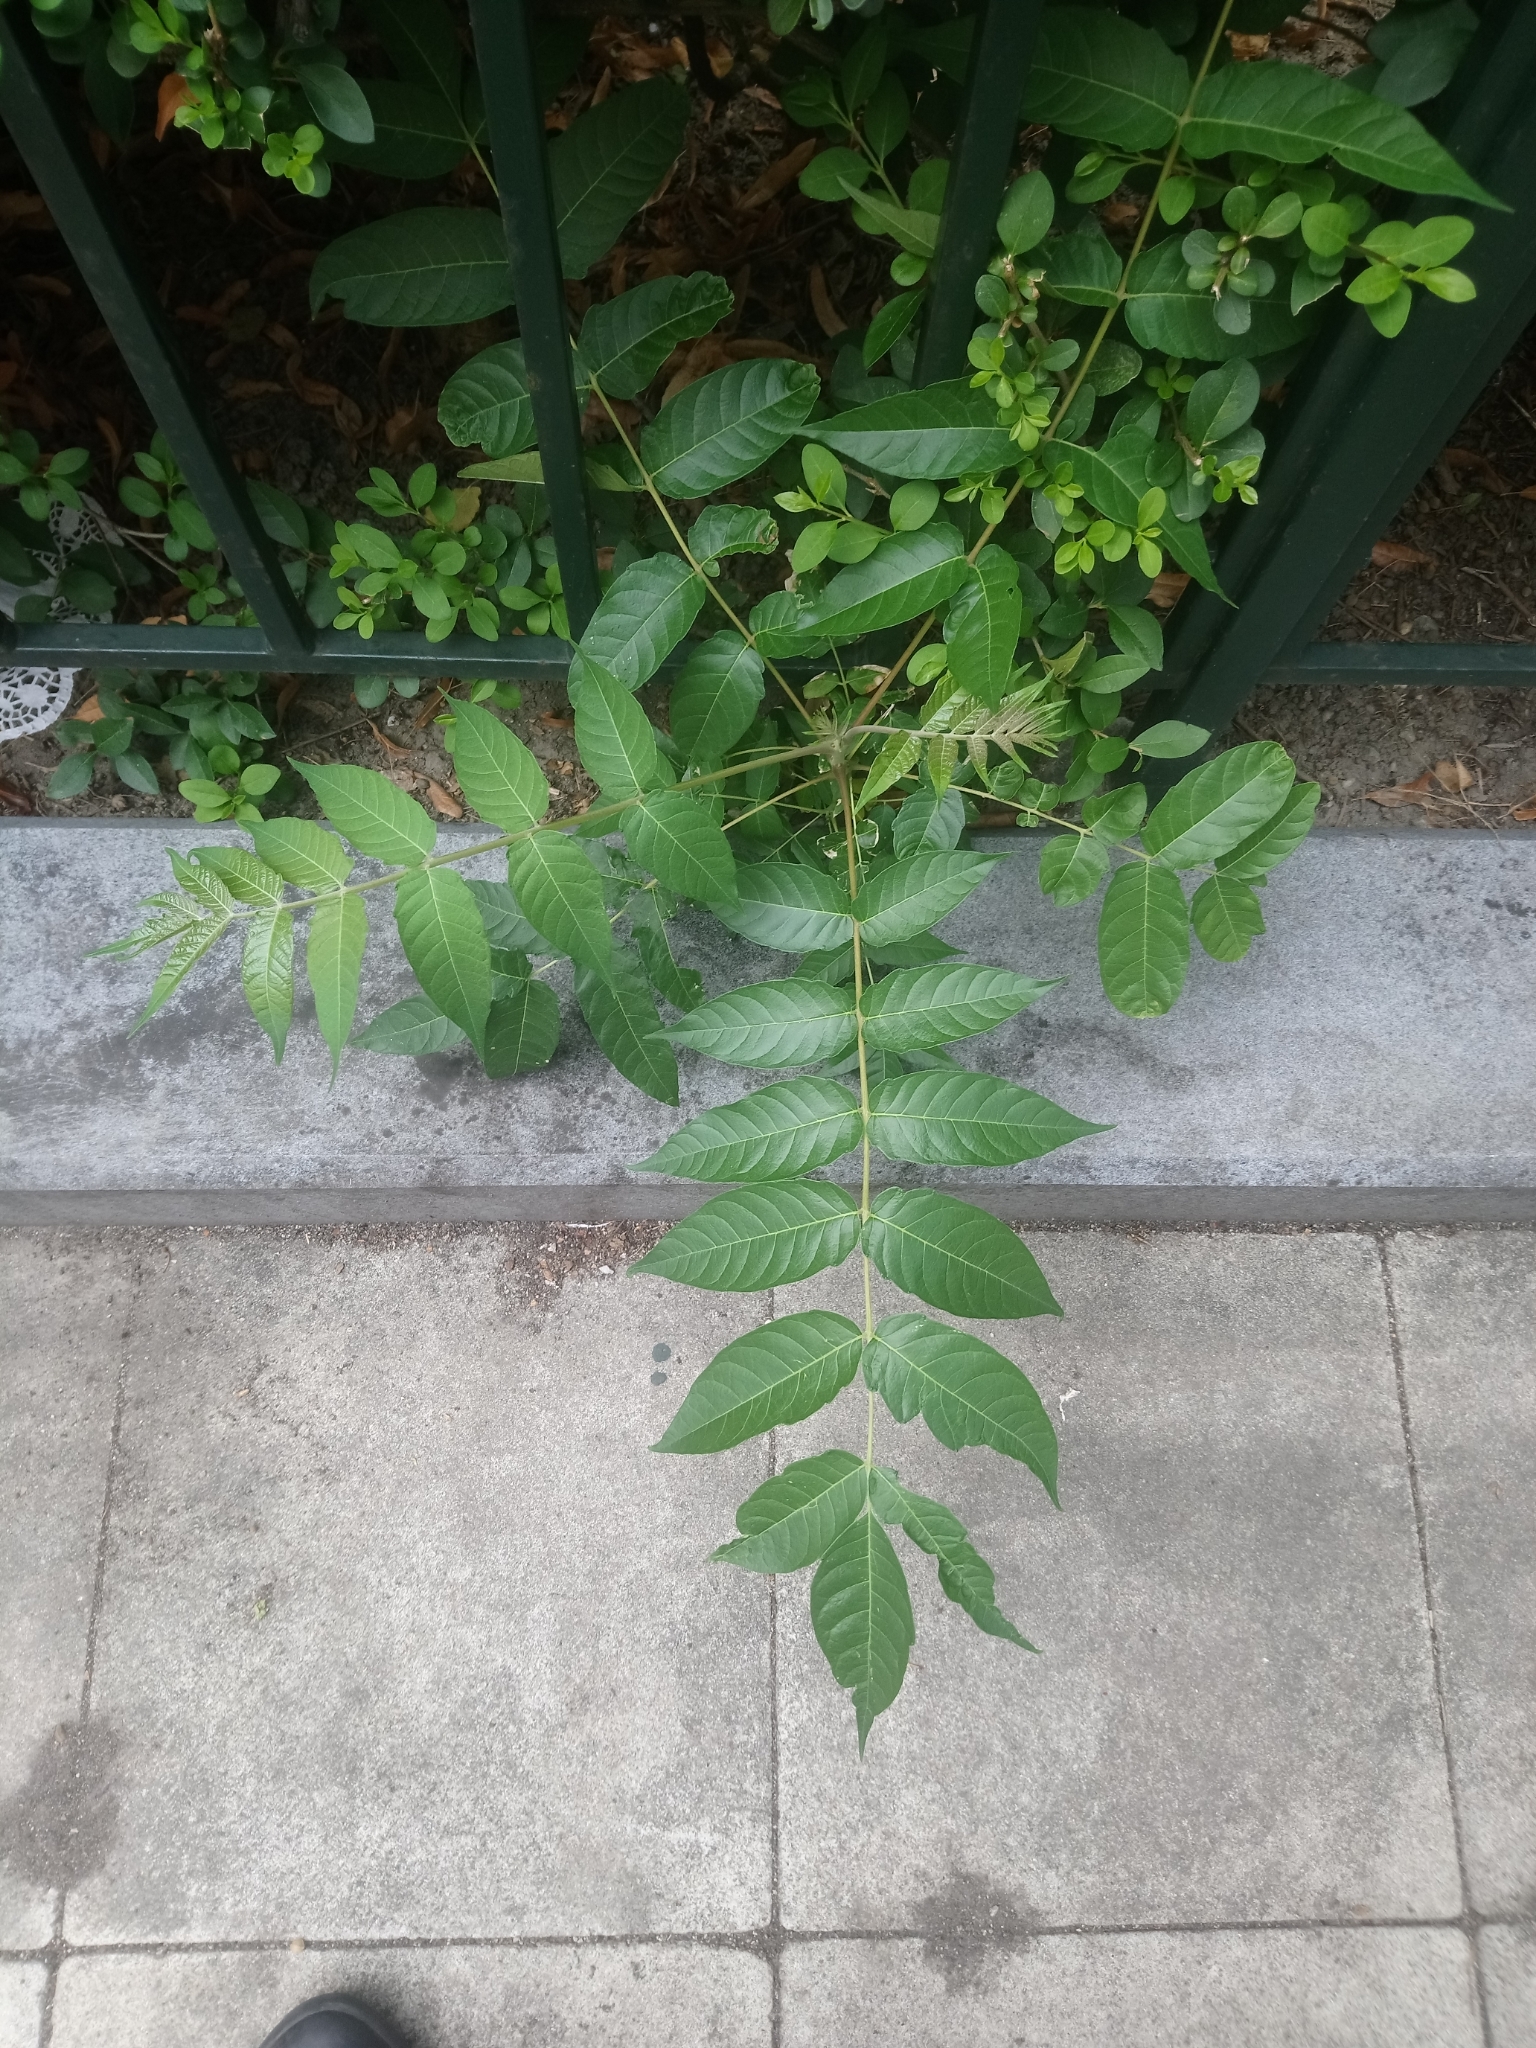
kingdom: Plantae
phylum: Tracheophyta
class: Magnoliopsida
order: Sapindales
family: Simaroubaceae
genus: Ailanthus
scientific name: Ailanthus altissima
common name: Tree-of-heaven
